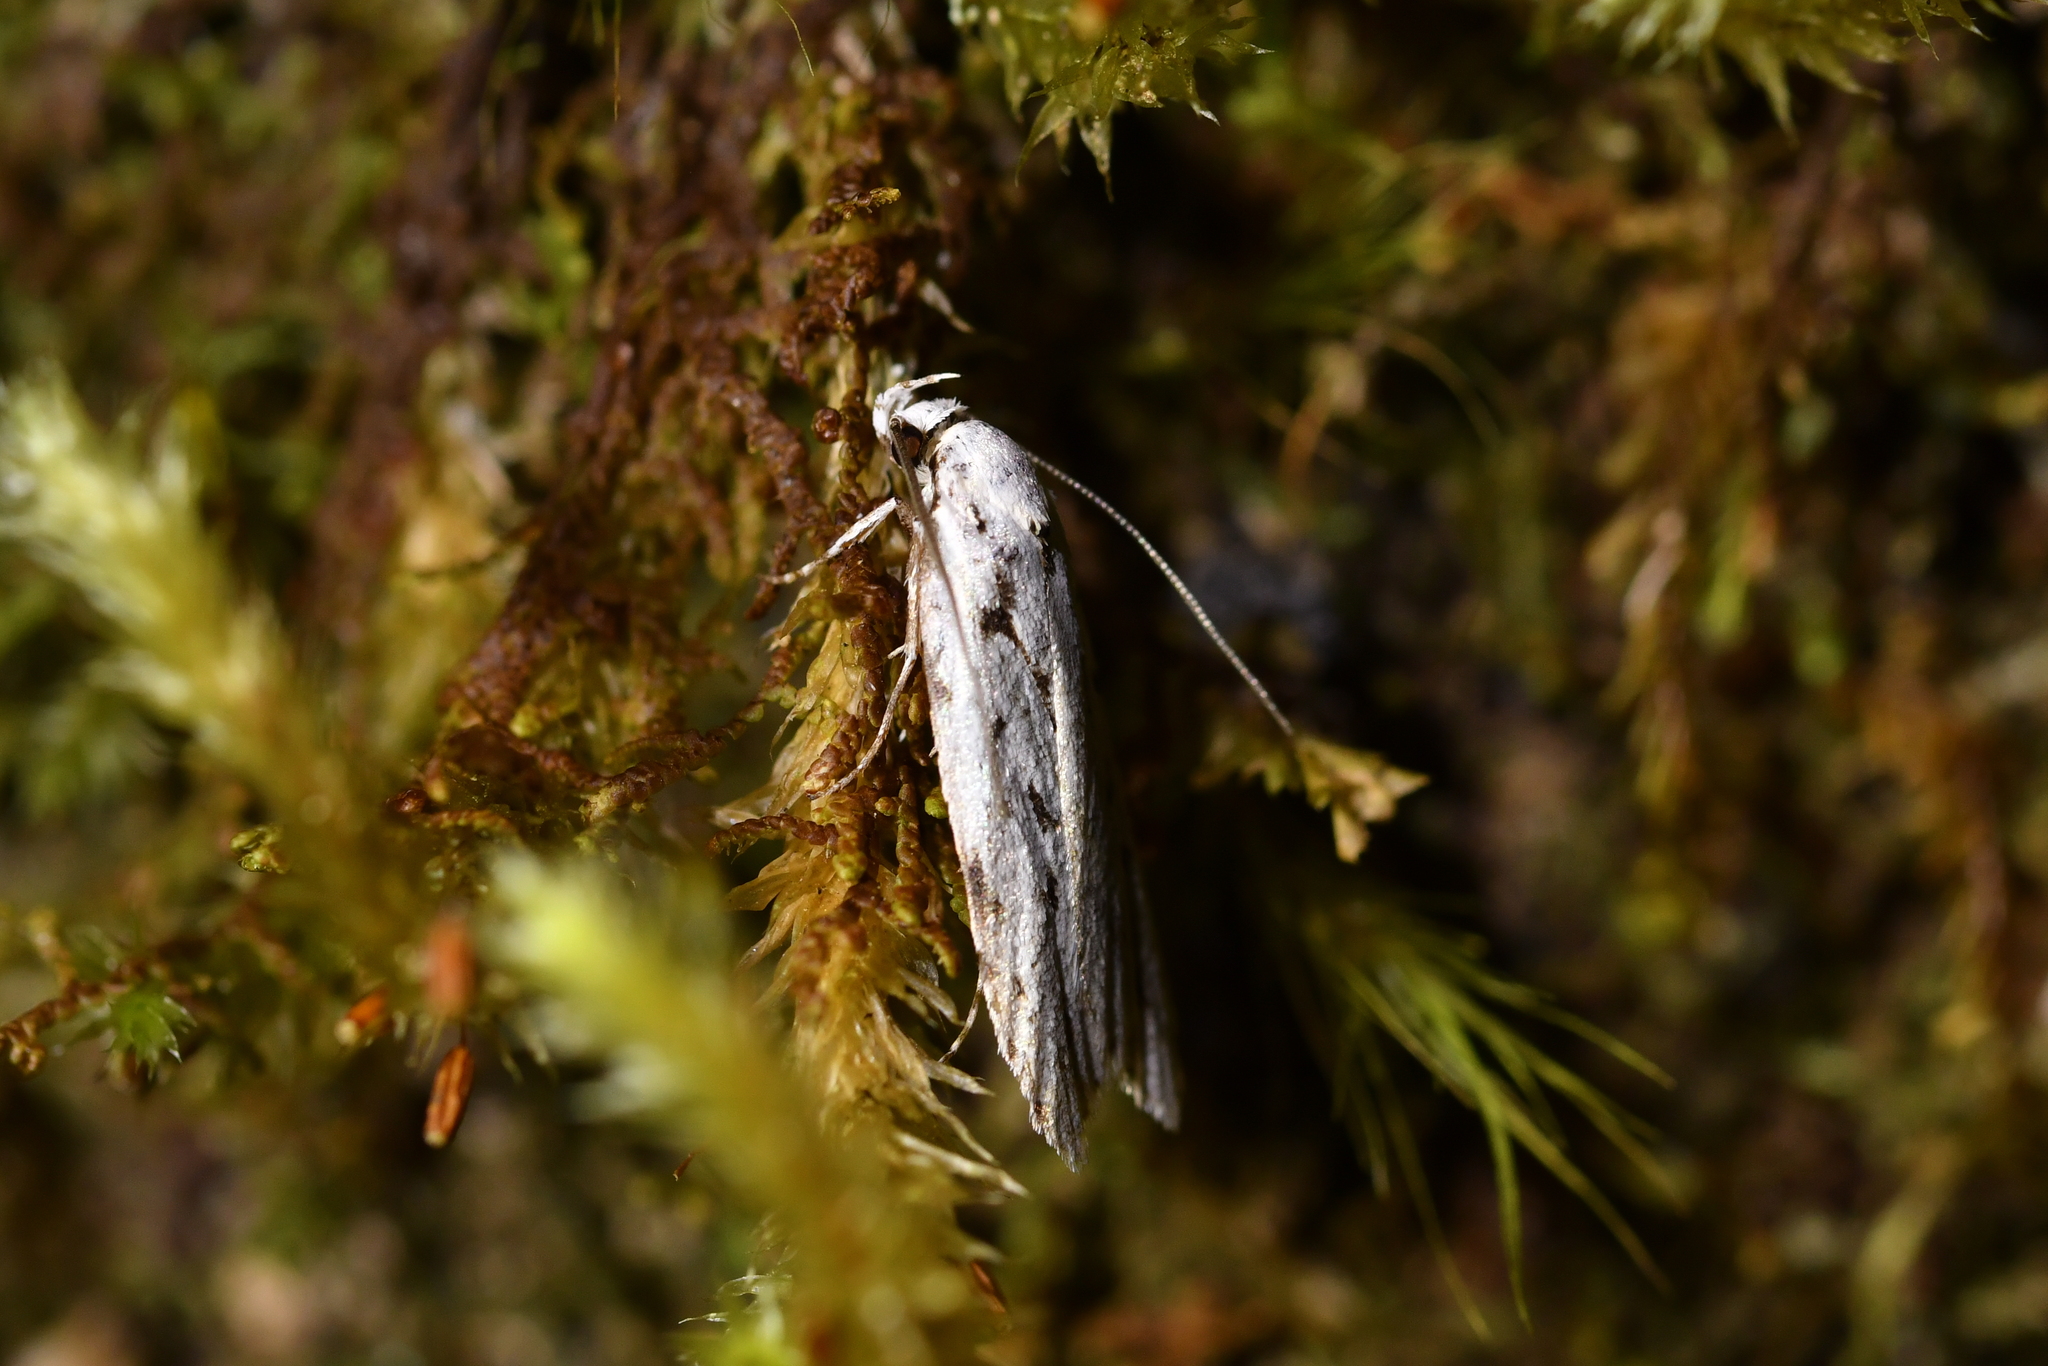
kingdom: Animalia
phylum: Arthropoda
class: Insecta
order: Lepidoptera
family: Oecophoridae
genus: Izatha
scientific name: Izatha heroica
